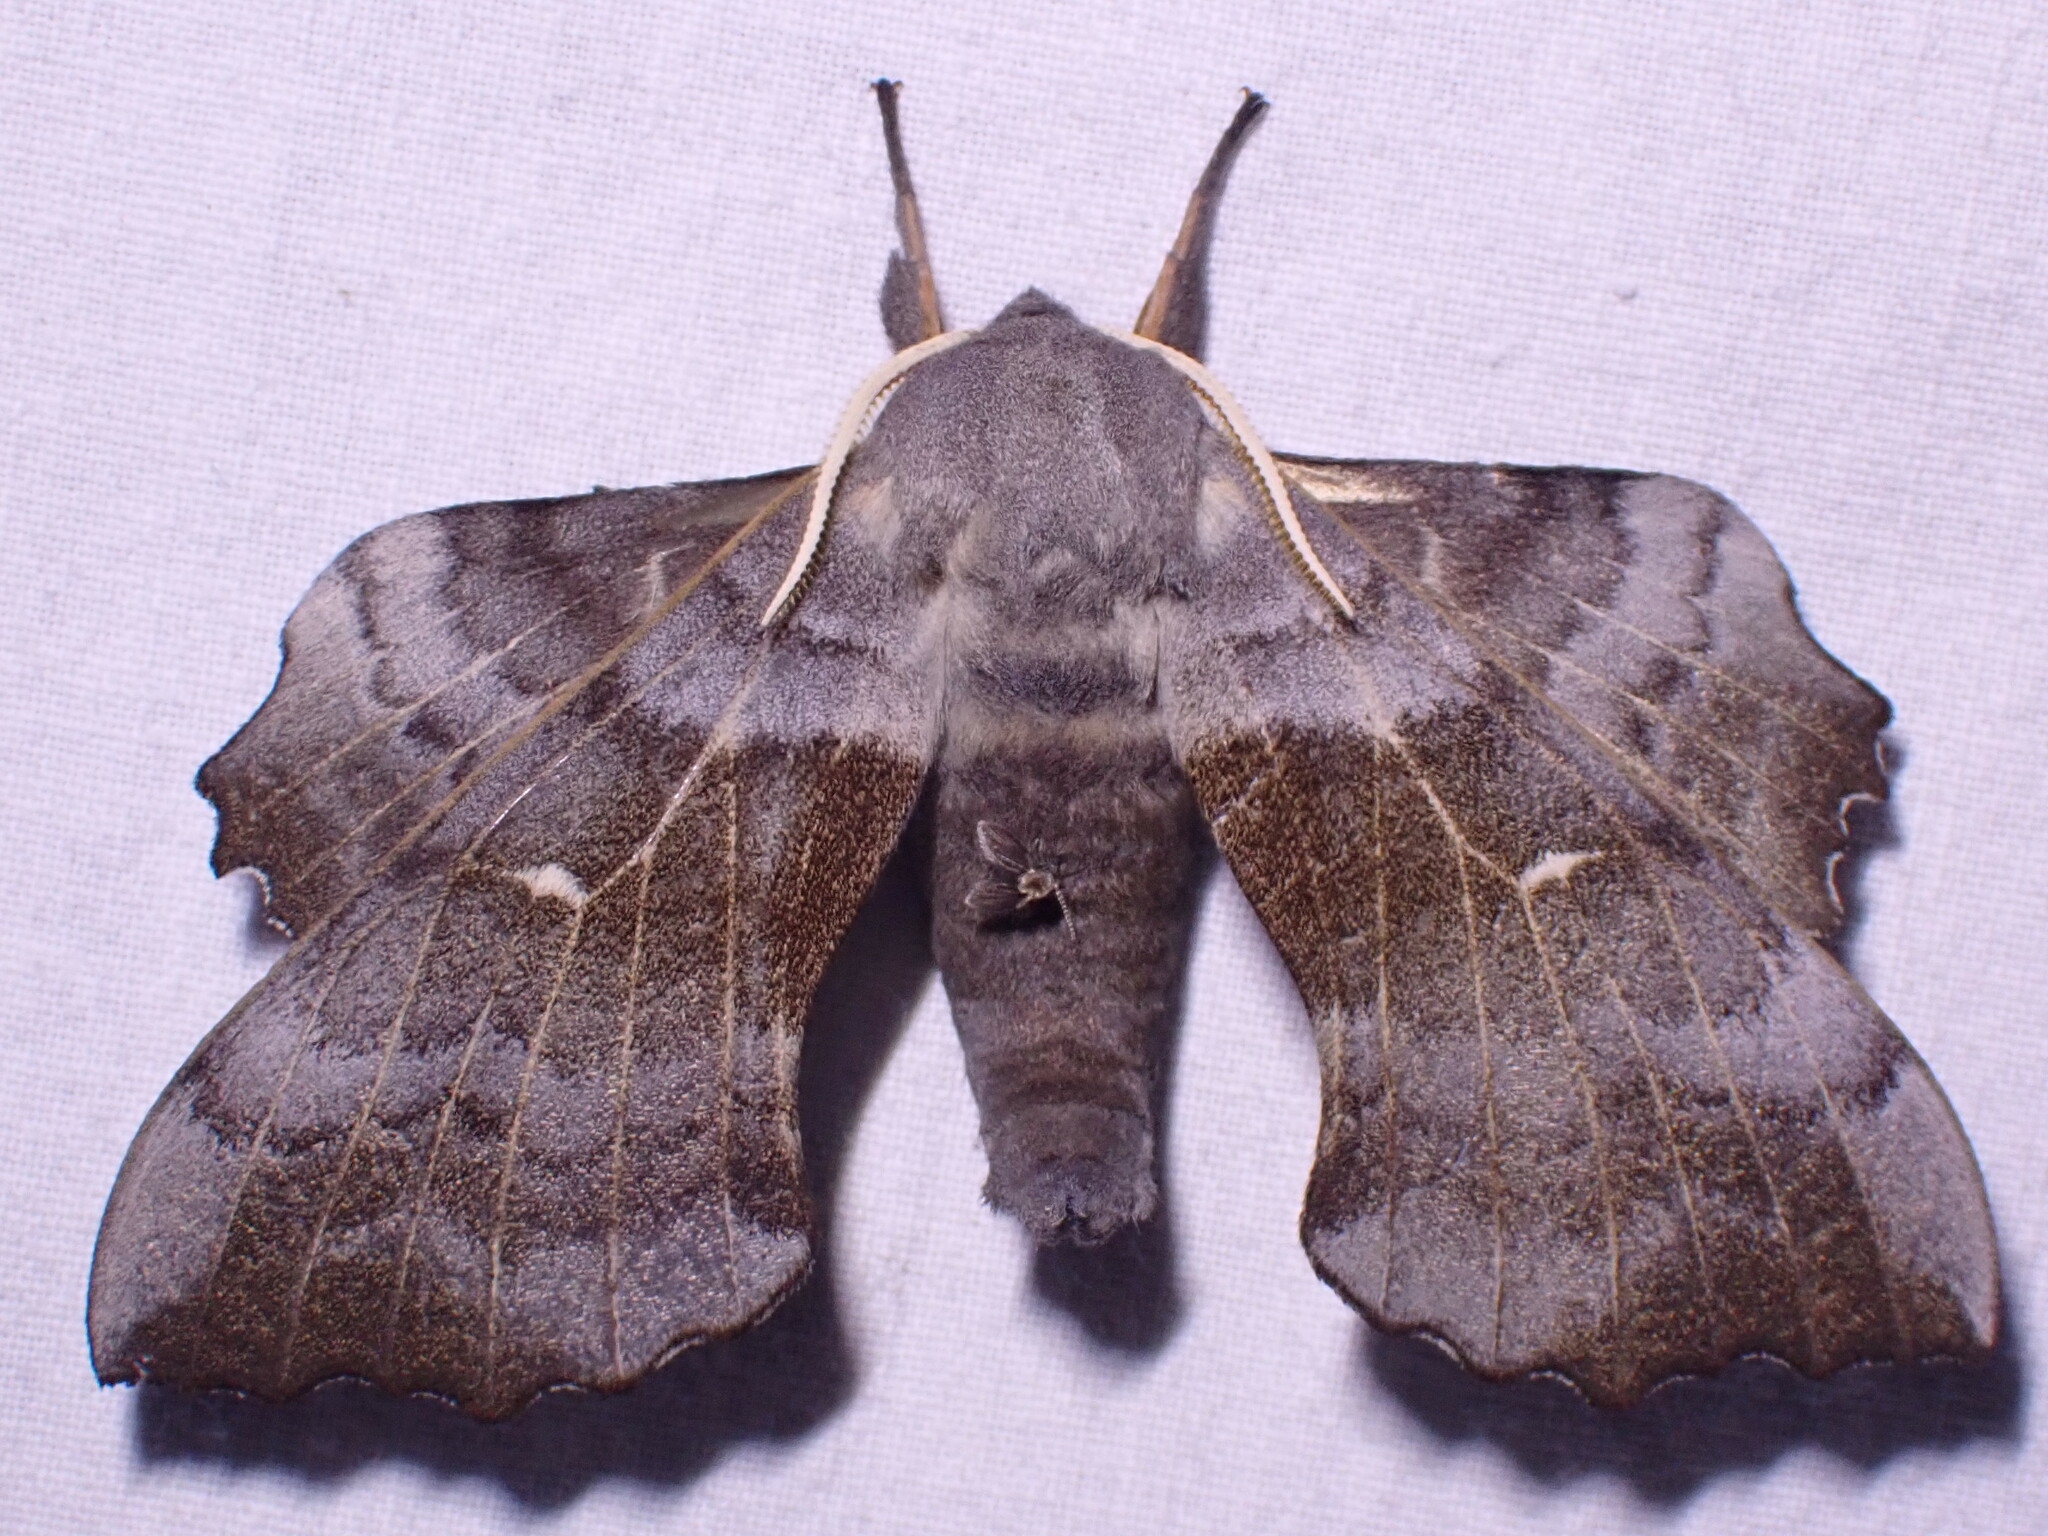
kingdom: Animalia
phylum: Arthropoda
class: Insecta
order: Lepidoptera
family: Sphingidae
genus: Laothoe
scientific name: Laothoe populi
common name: Poplar hawk-moth
